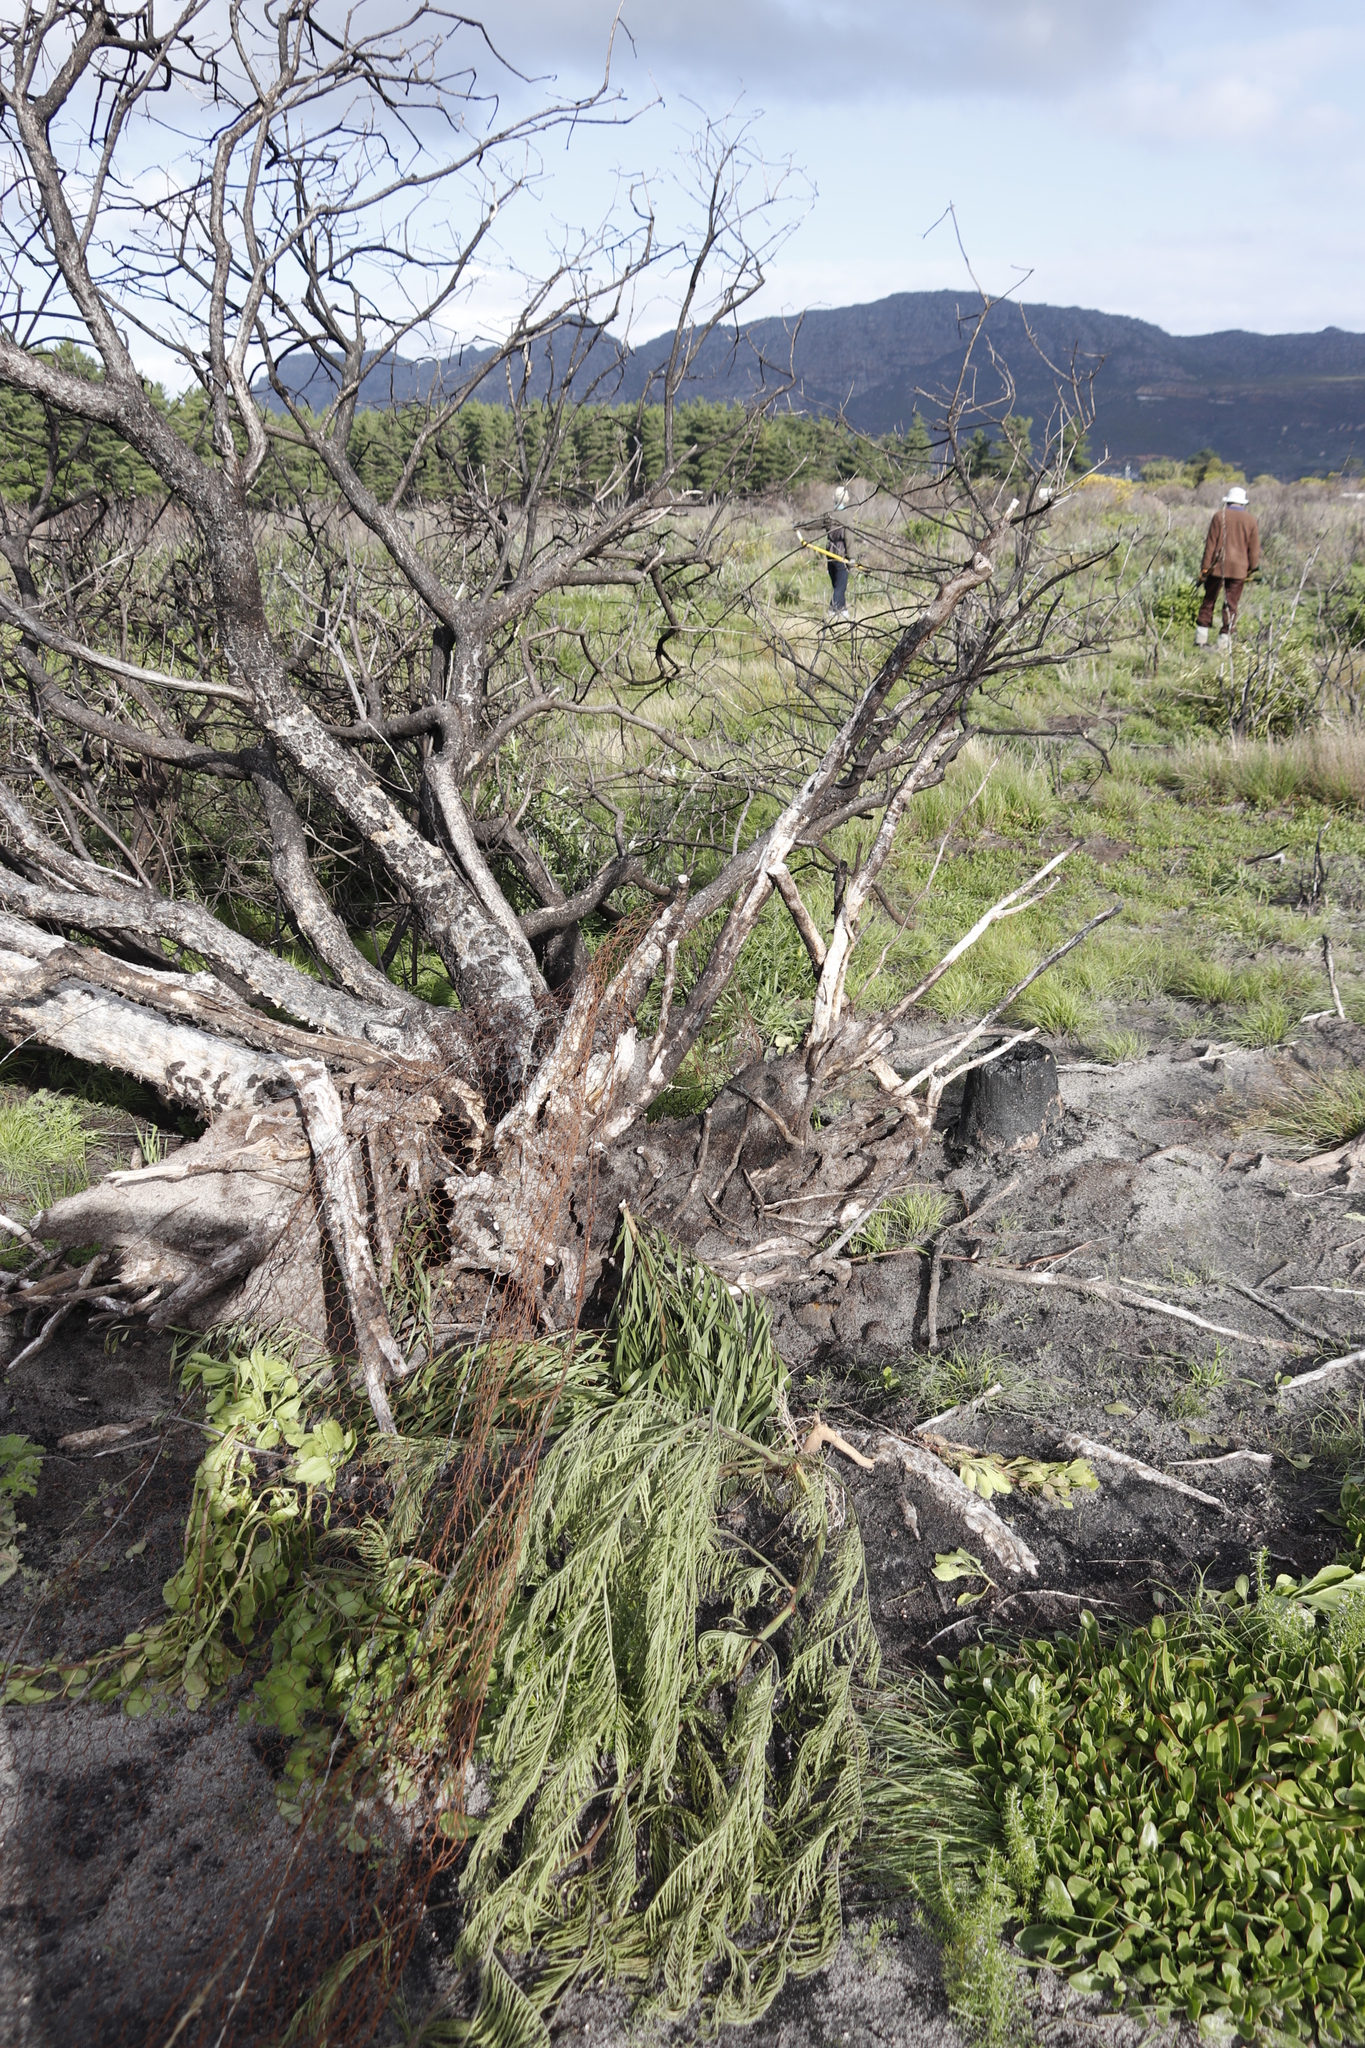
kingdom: Plantae
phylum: Tracheophyta
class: Magnoliopsida
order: Asterales
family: Asteraceae
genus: Osteospermum
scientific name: Osteospermum moniliferum
